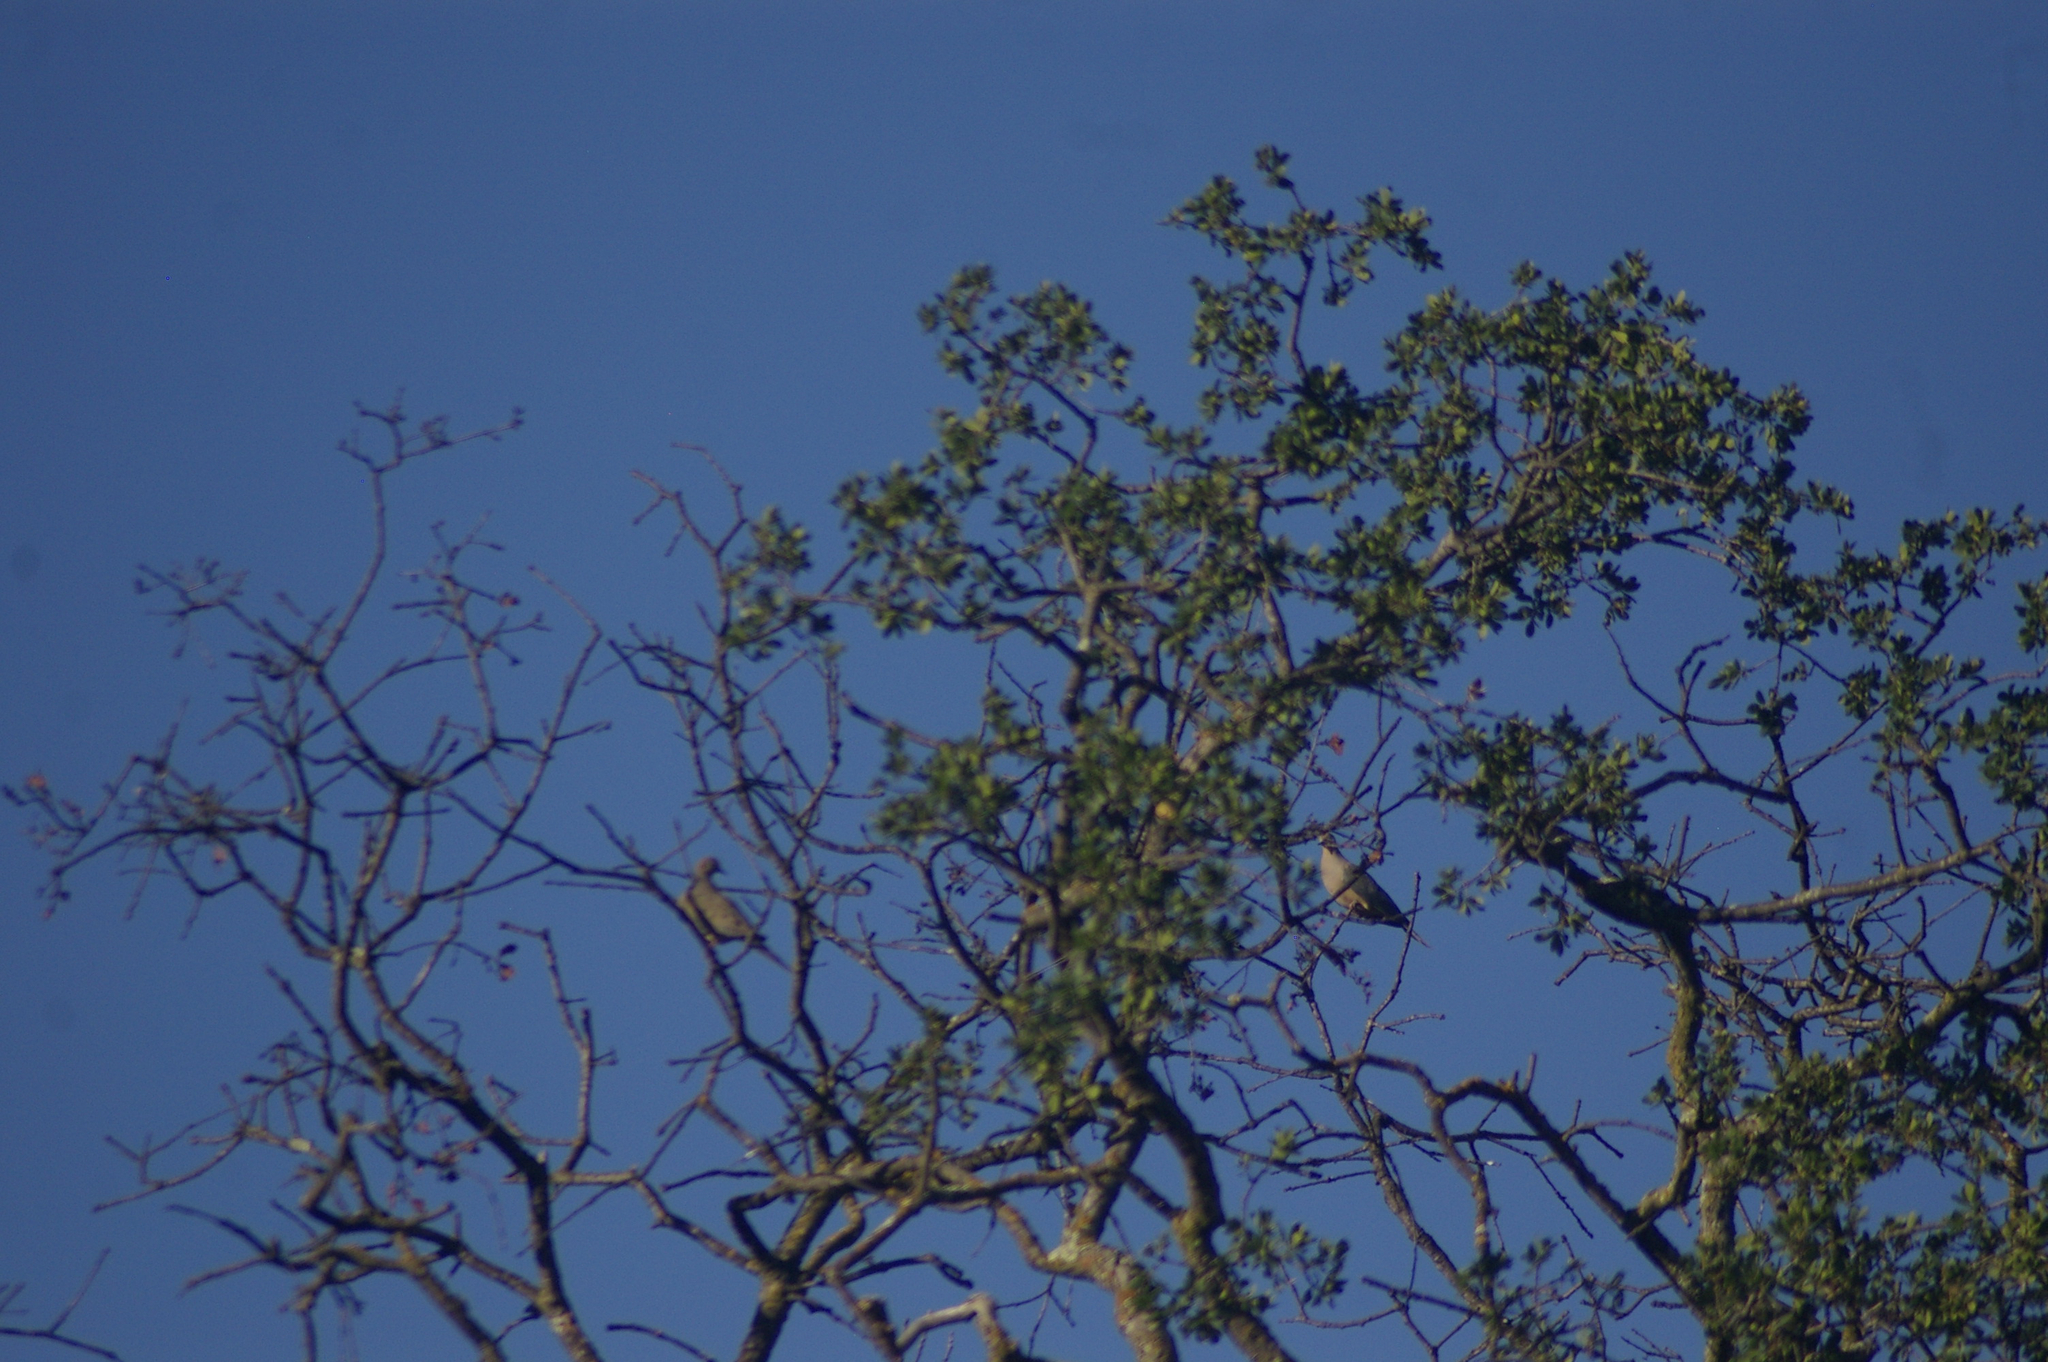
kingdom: Animalia
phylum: Chordata
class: Aves
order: Columbiformes
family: Columbidae
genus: Zenaida
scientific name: Zenaida macroura
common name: Mourning dove
